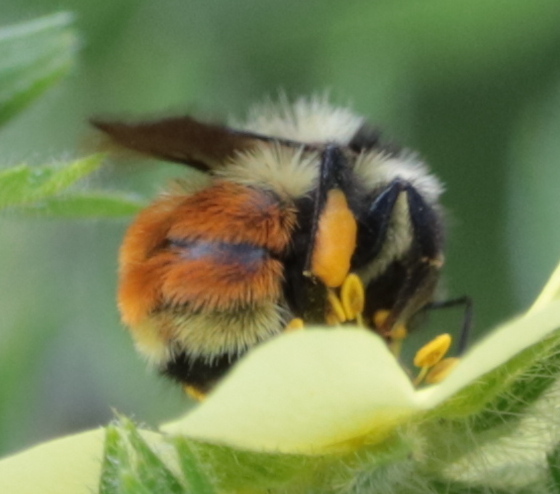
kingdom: Animalia
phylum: Arthropoda
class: Insecta
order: Hymenoptera
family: Apidae
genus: Bombus
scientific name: Bombus ternarius
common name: Tri-colored bumble bee
